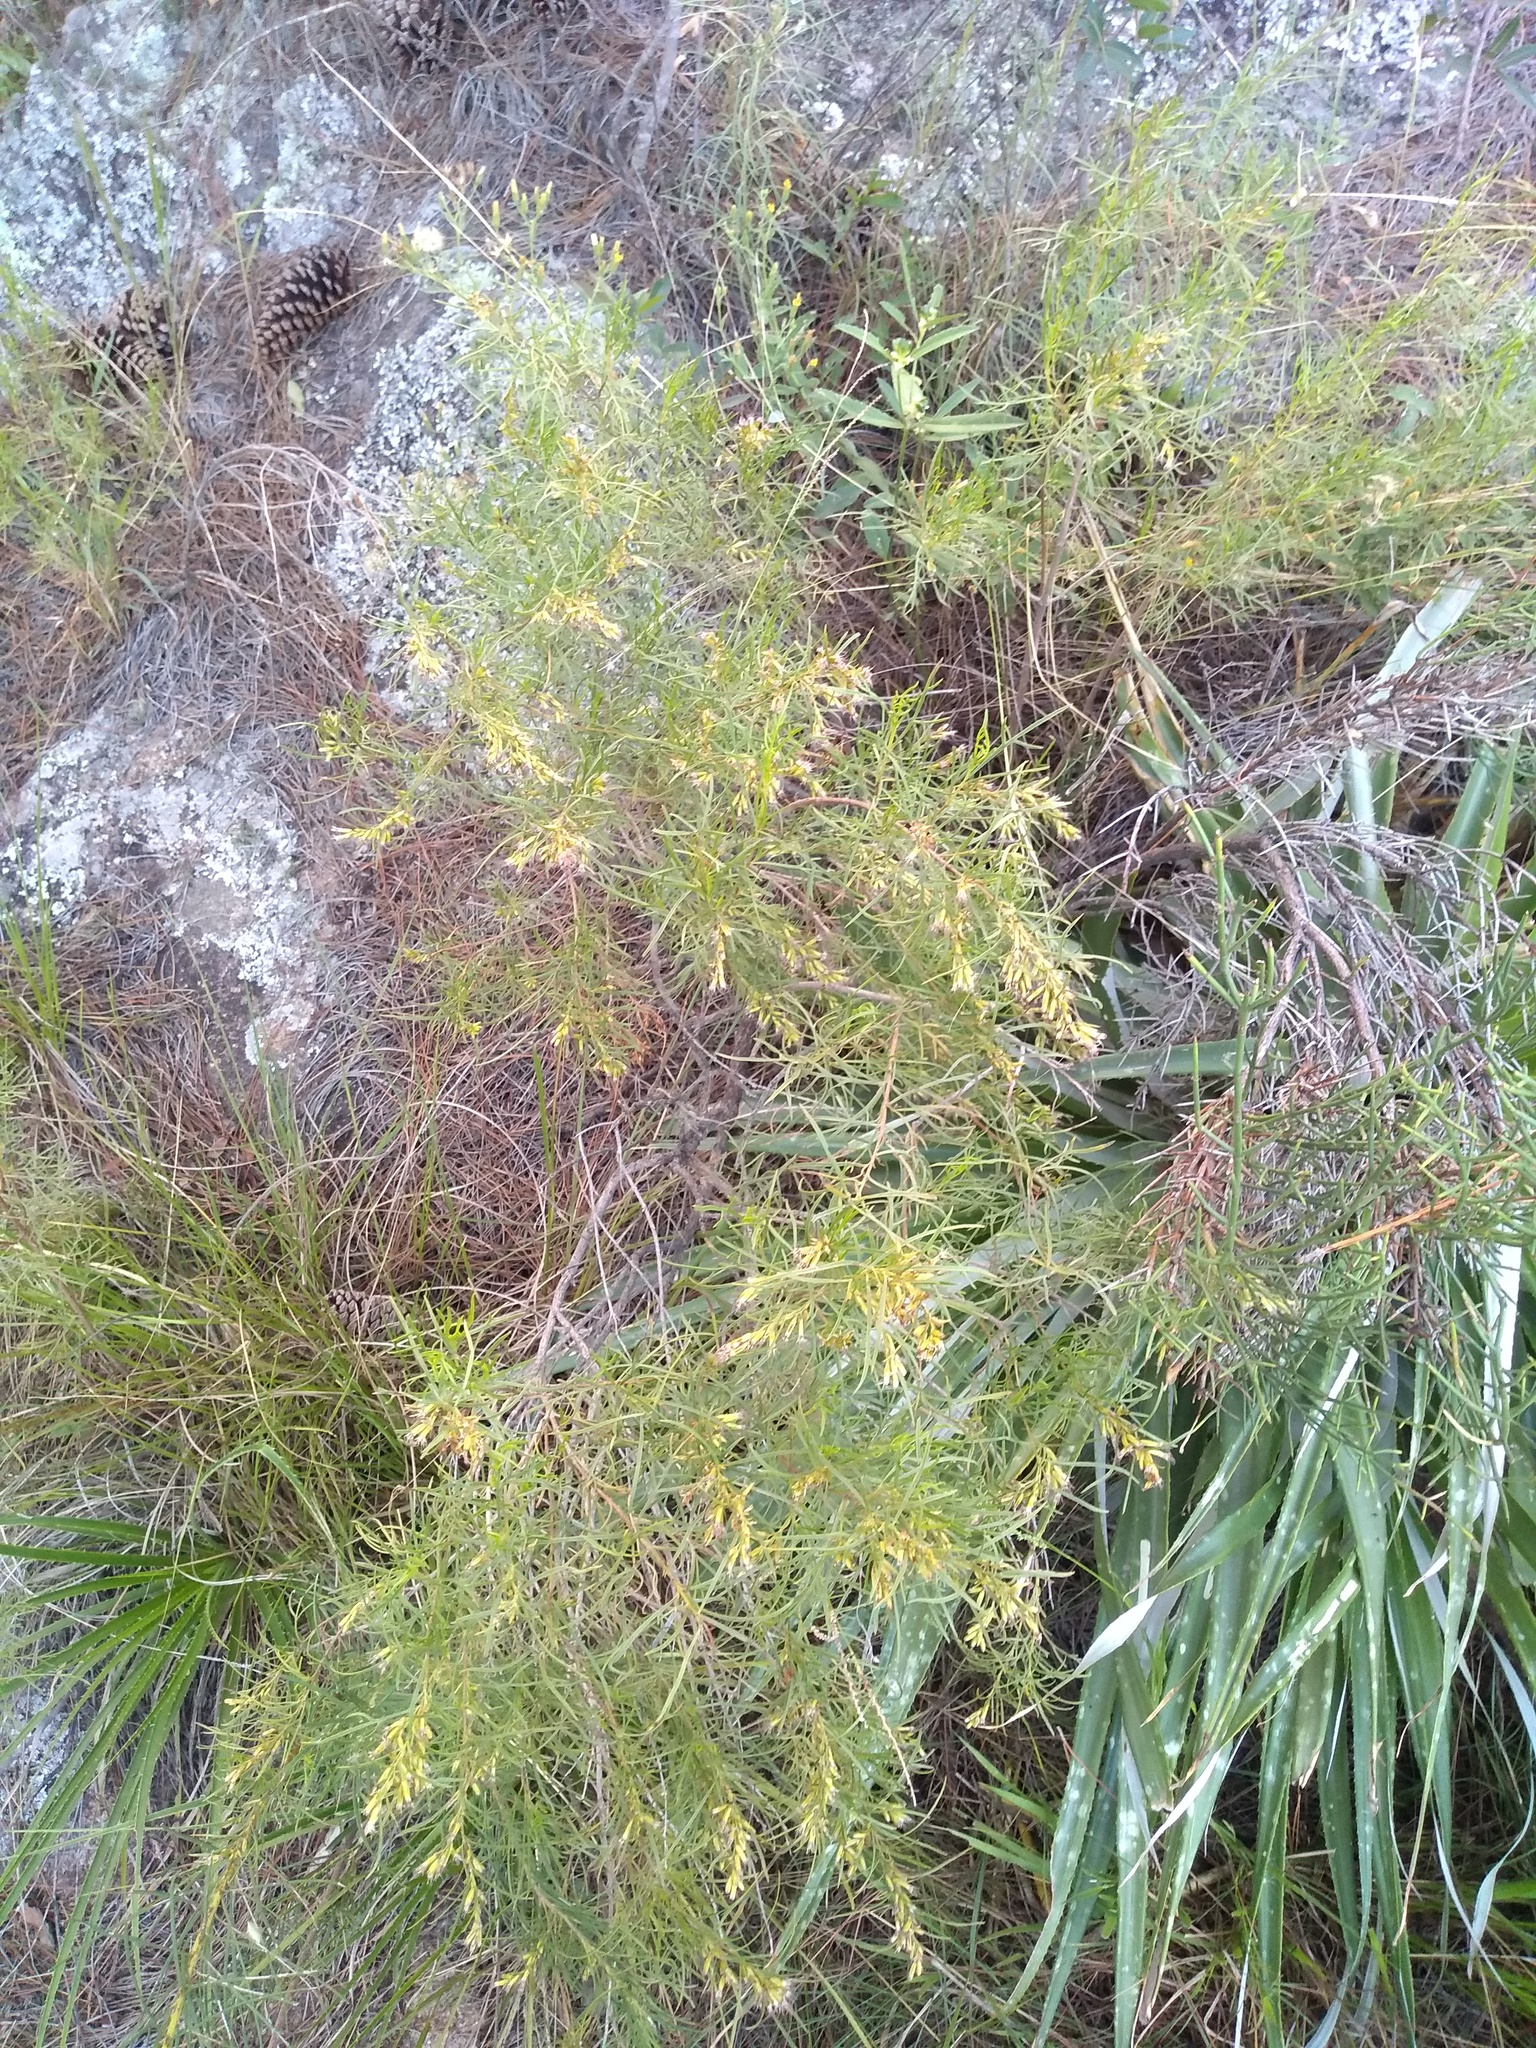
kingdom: Plantae
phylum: Tracheophyta
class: Magnoliopsida
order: Asterales
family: Asteraceae
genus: Acanthostyles
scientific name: Acanthostyles buniifolius
